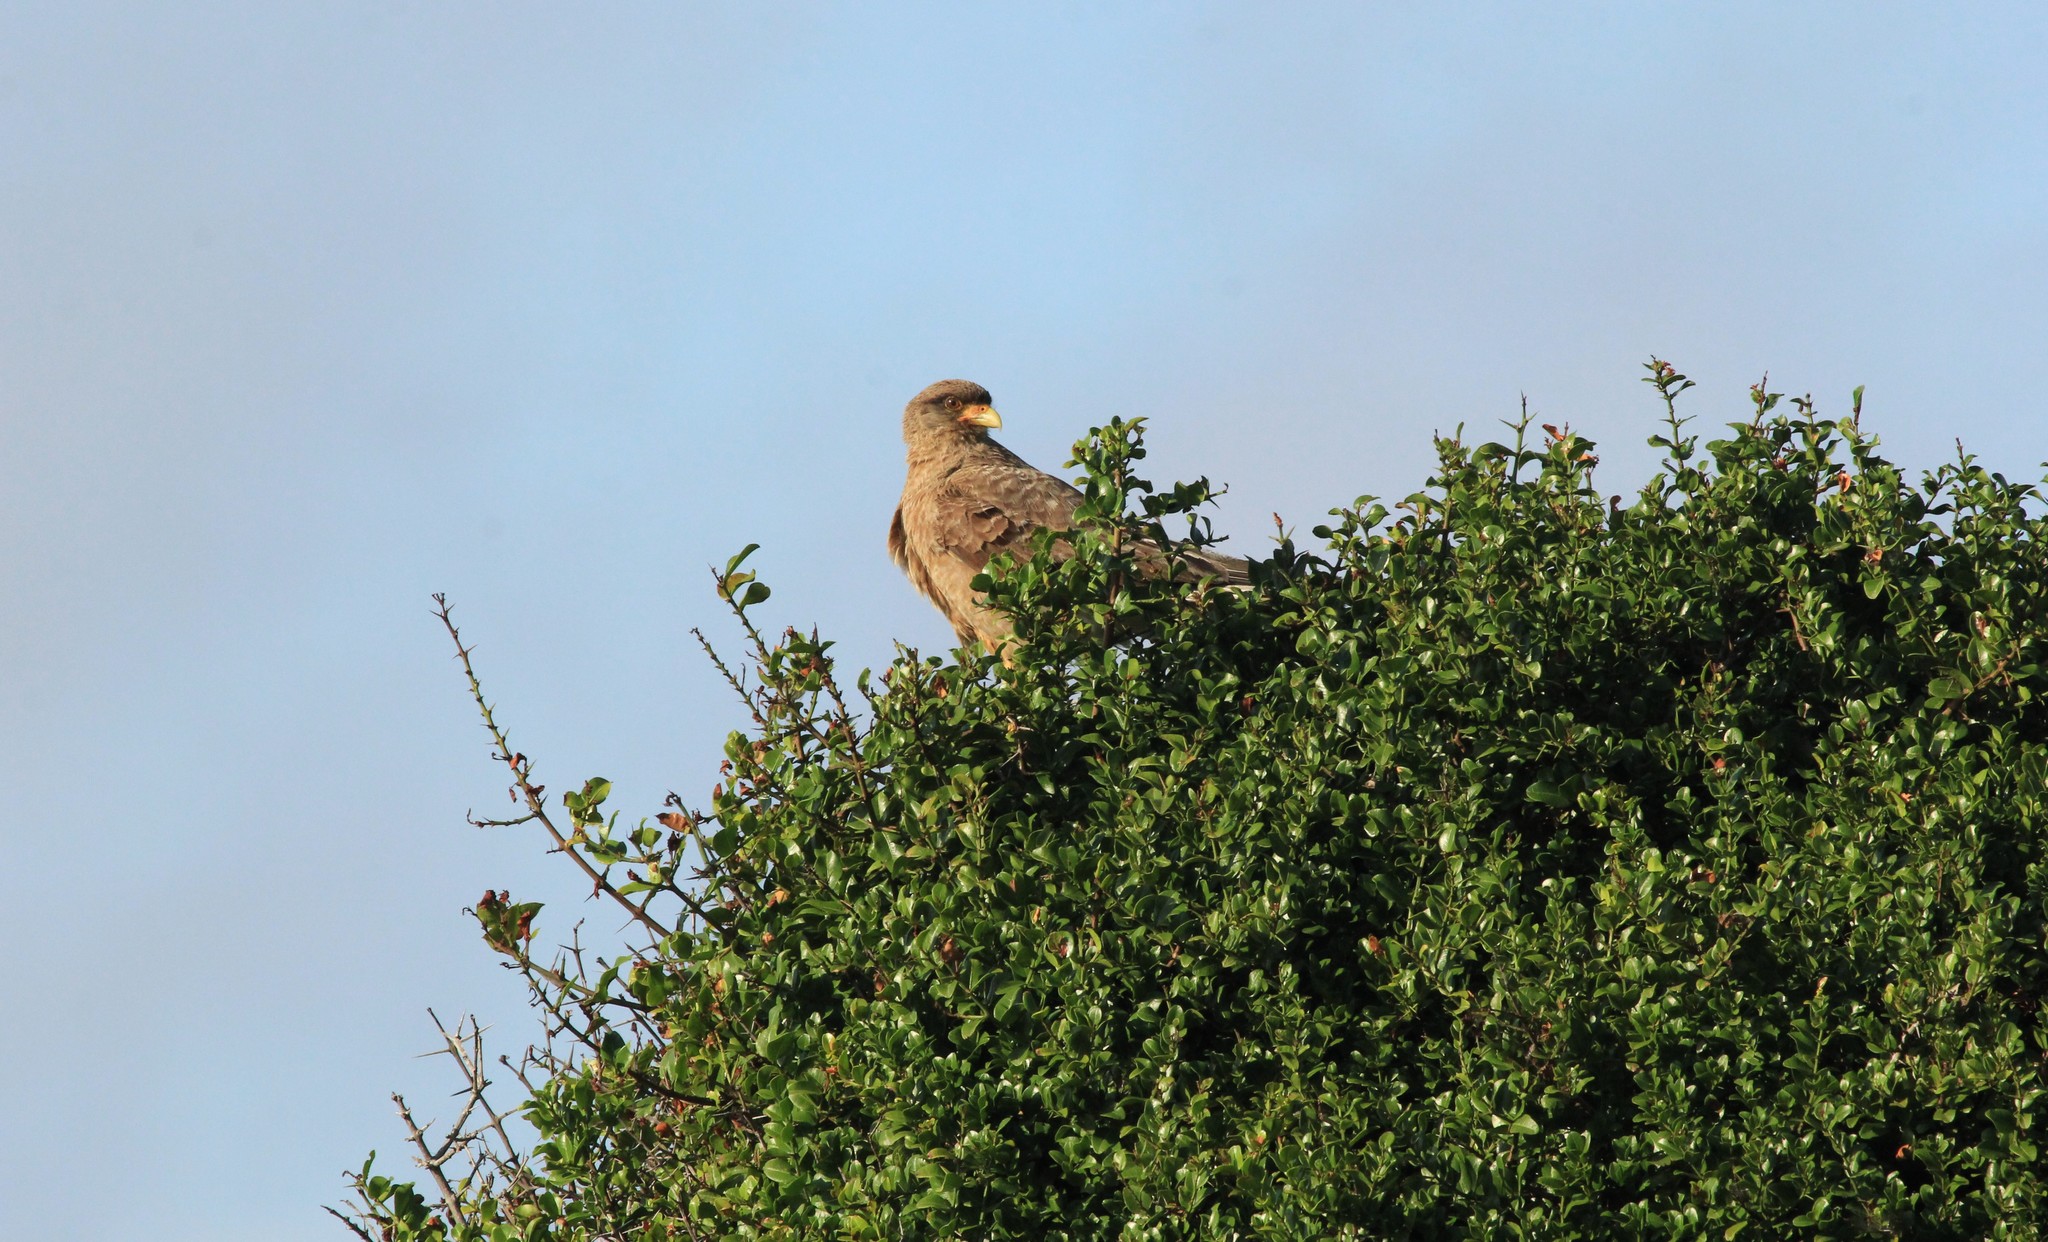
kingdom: Animalia
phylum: Chordata
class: Aves
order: Falconiformes
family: Falconidae
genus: Daptrius
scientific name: Daptrius
